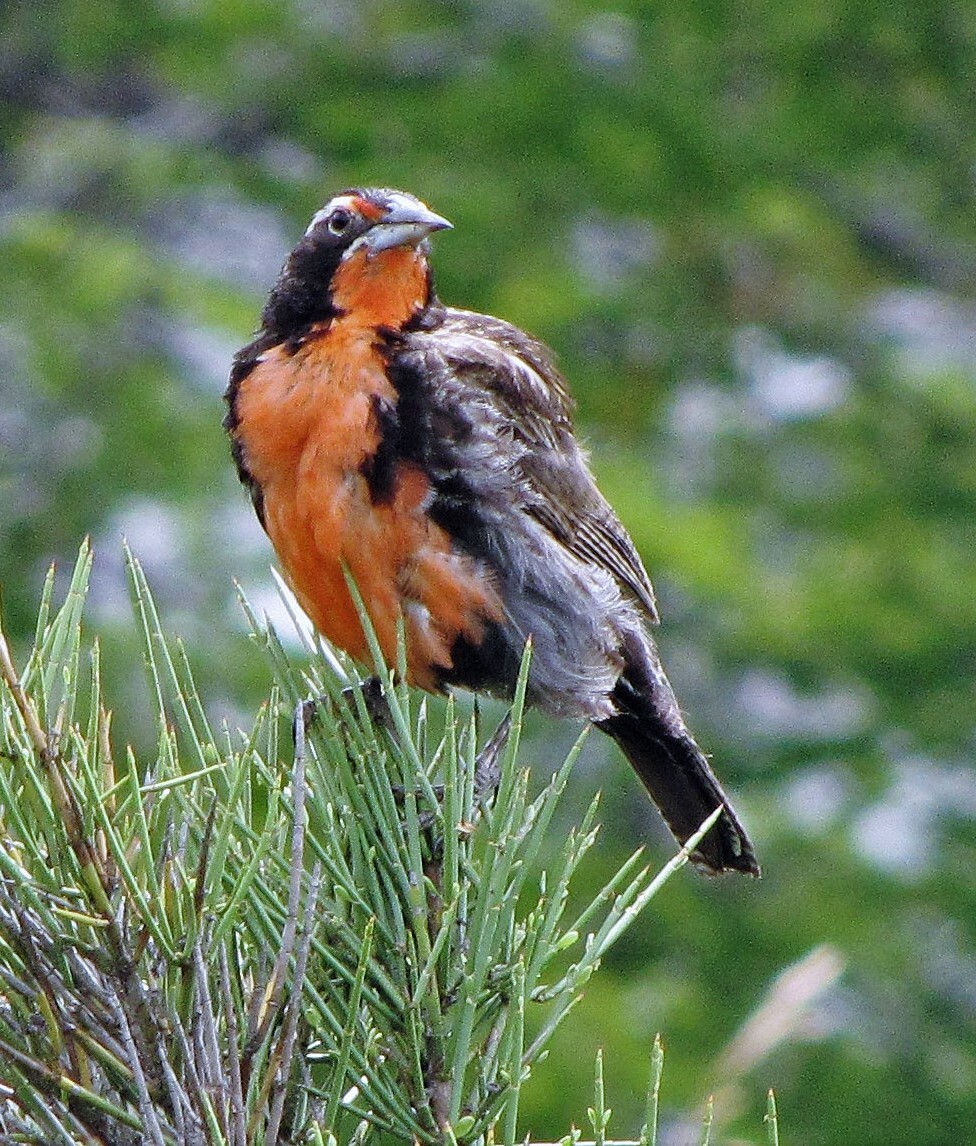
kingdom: Animalia
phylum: Chordata
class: Aves
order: Passeriformes
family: Icteridae
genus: Sturnella
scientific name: Sturnella loyca
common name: Long-tailed meadowlark
